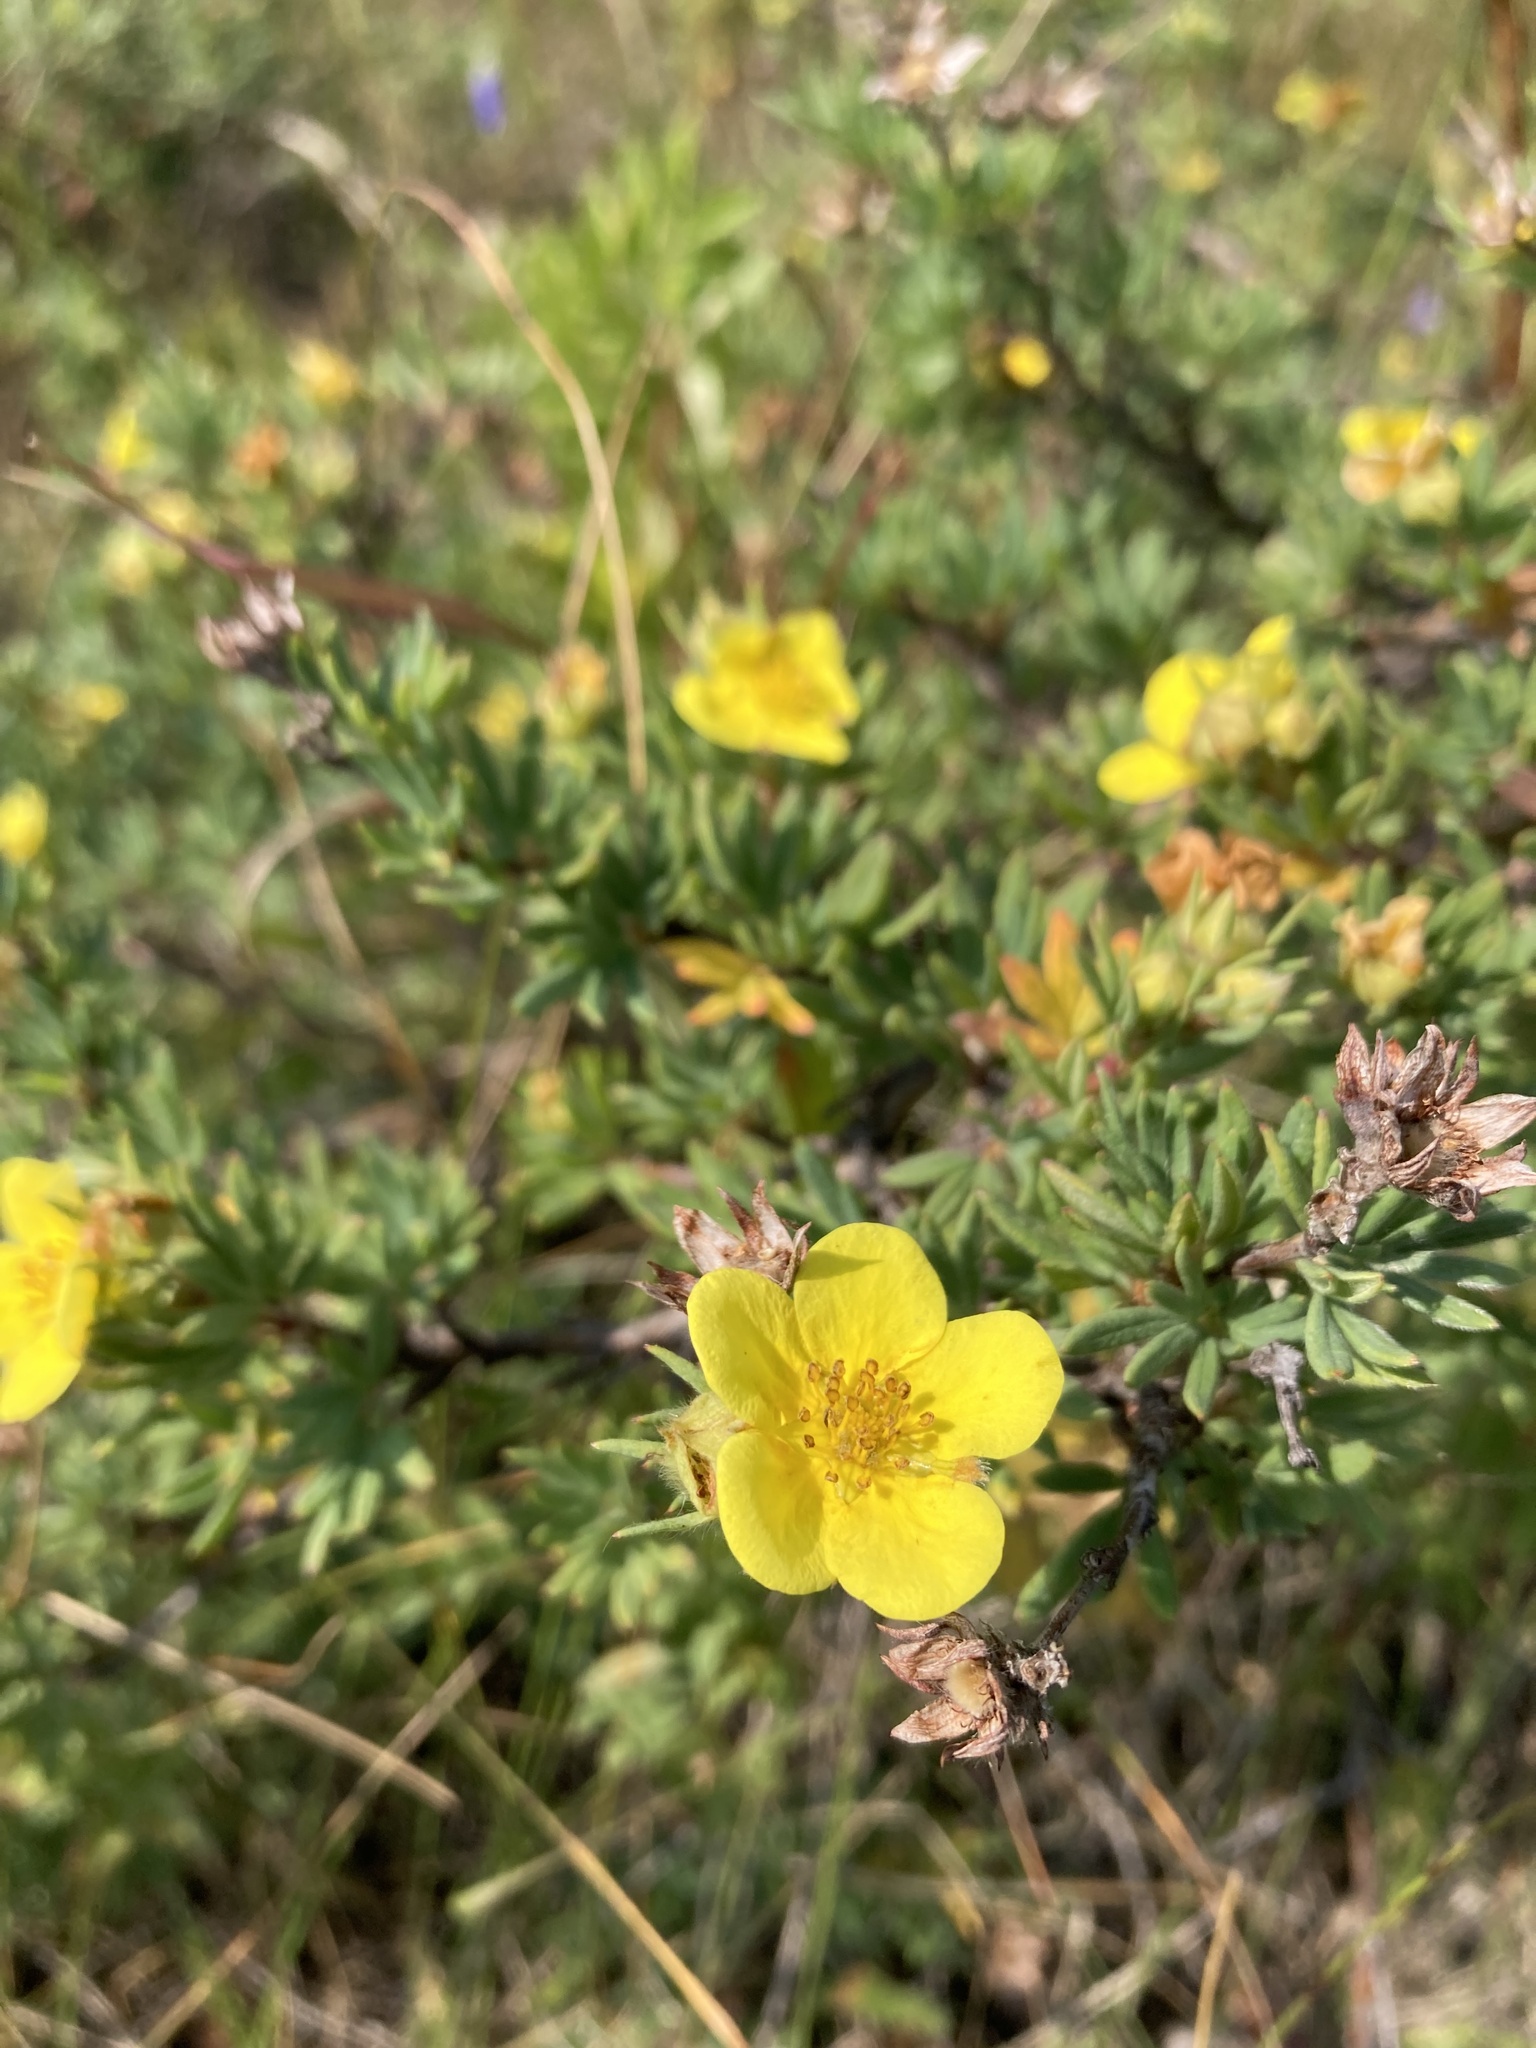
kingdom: Plantae
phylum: Tracheophyta
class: Magnoliopsida
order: Rosales
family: Rosaceae
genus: Dasiphora
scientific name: Dasiphora fruticosa
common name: Shrubby cinquefoil
